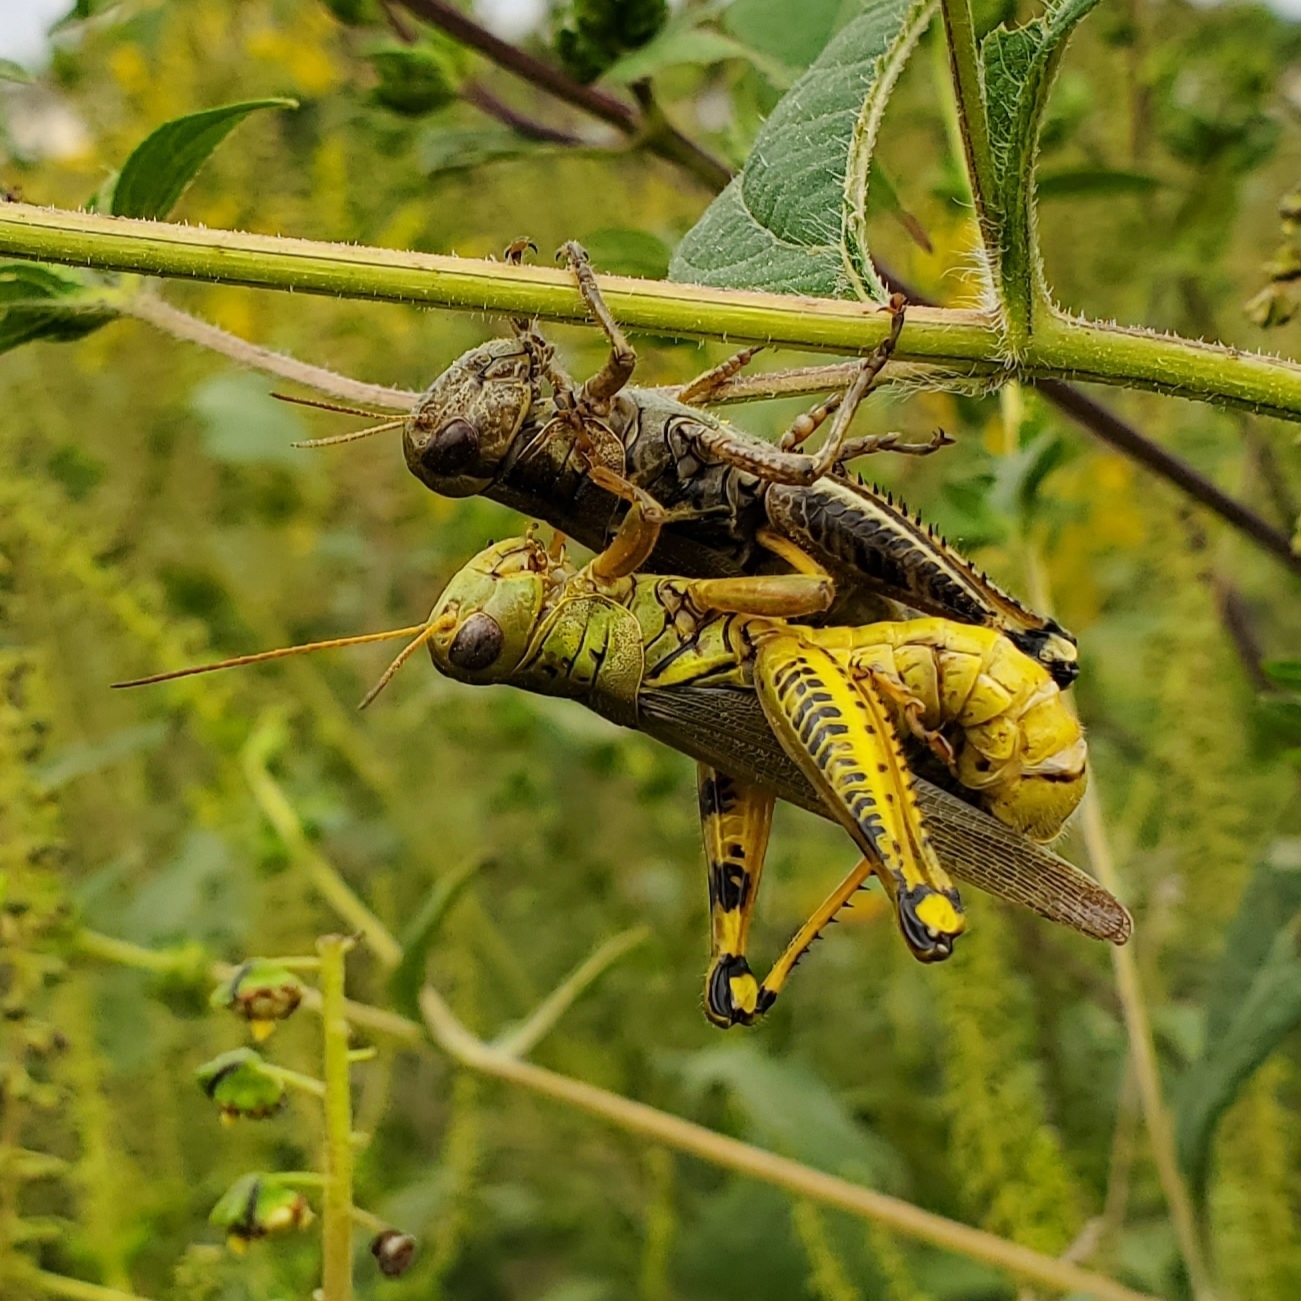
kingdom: Animalia
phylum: Arthropoda
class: Insecta
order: Orthoptera
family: Acrididae
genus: Melanoplus
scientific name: Melanoplus differentialis
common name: Differential grasshopper
